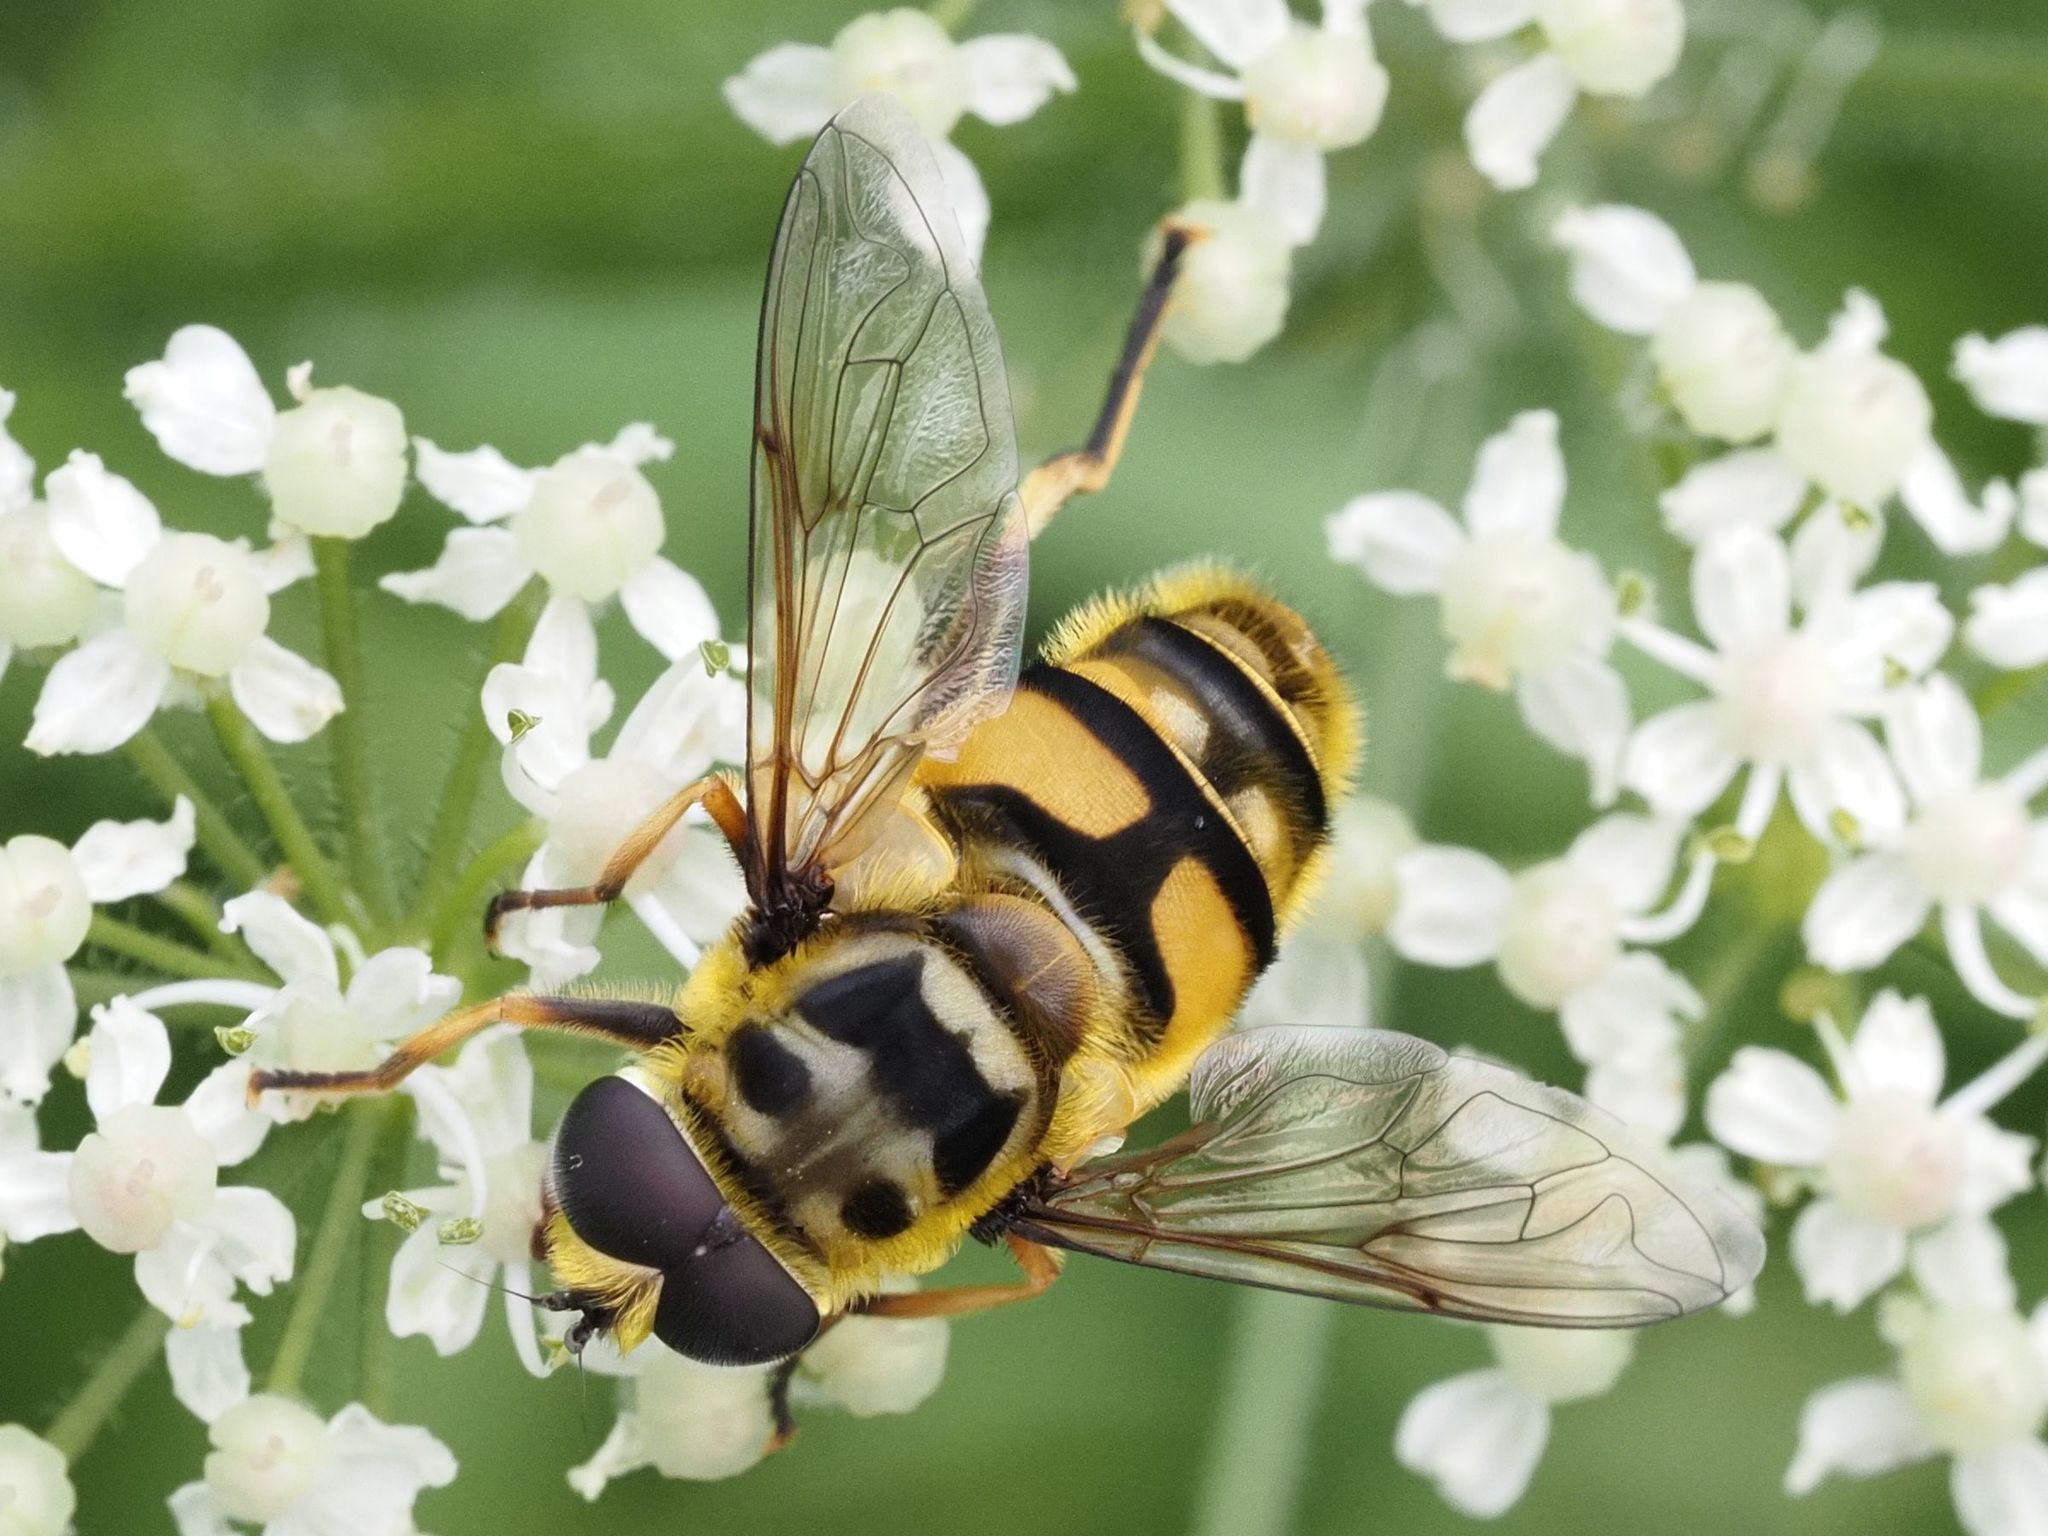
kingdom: Animalia
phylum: Arthropoda
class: Insecta
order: Diptera
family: Syrphidae
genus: Myathropa
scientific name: Myathropa florea
